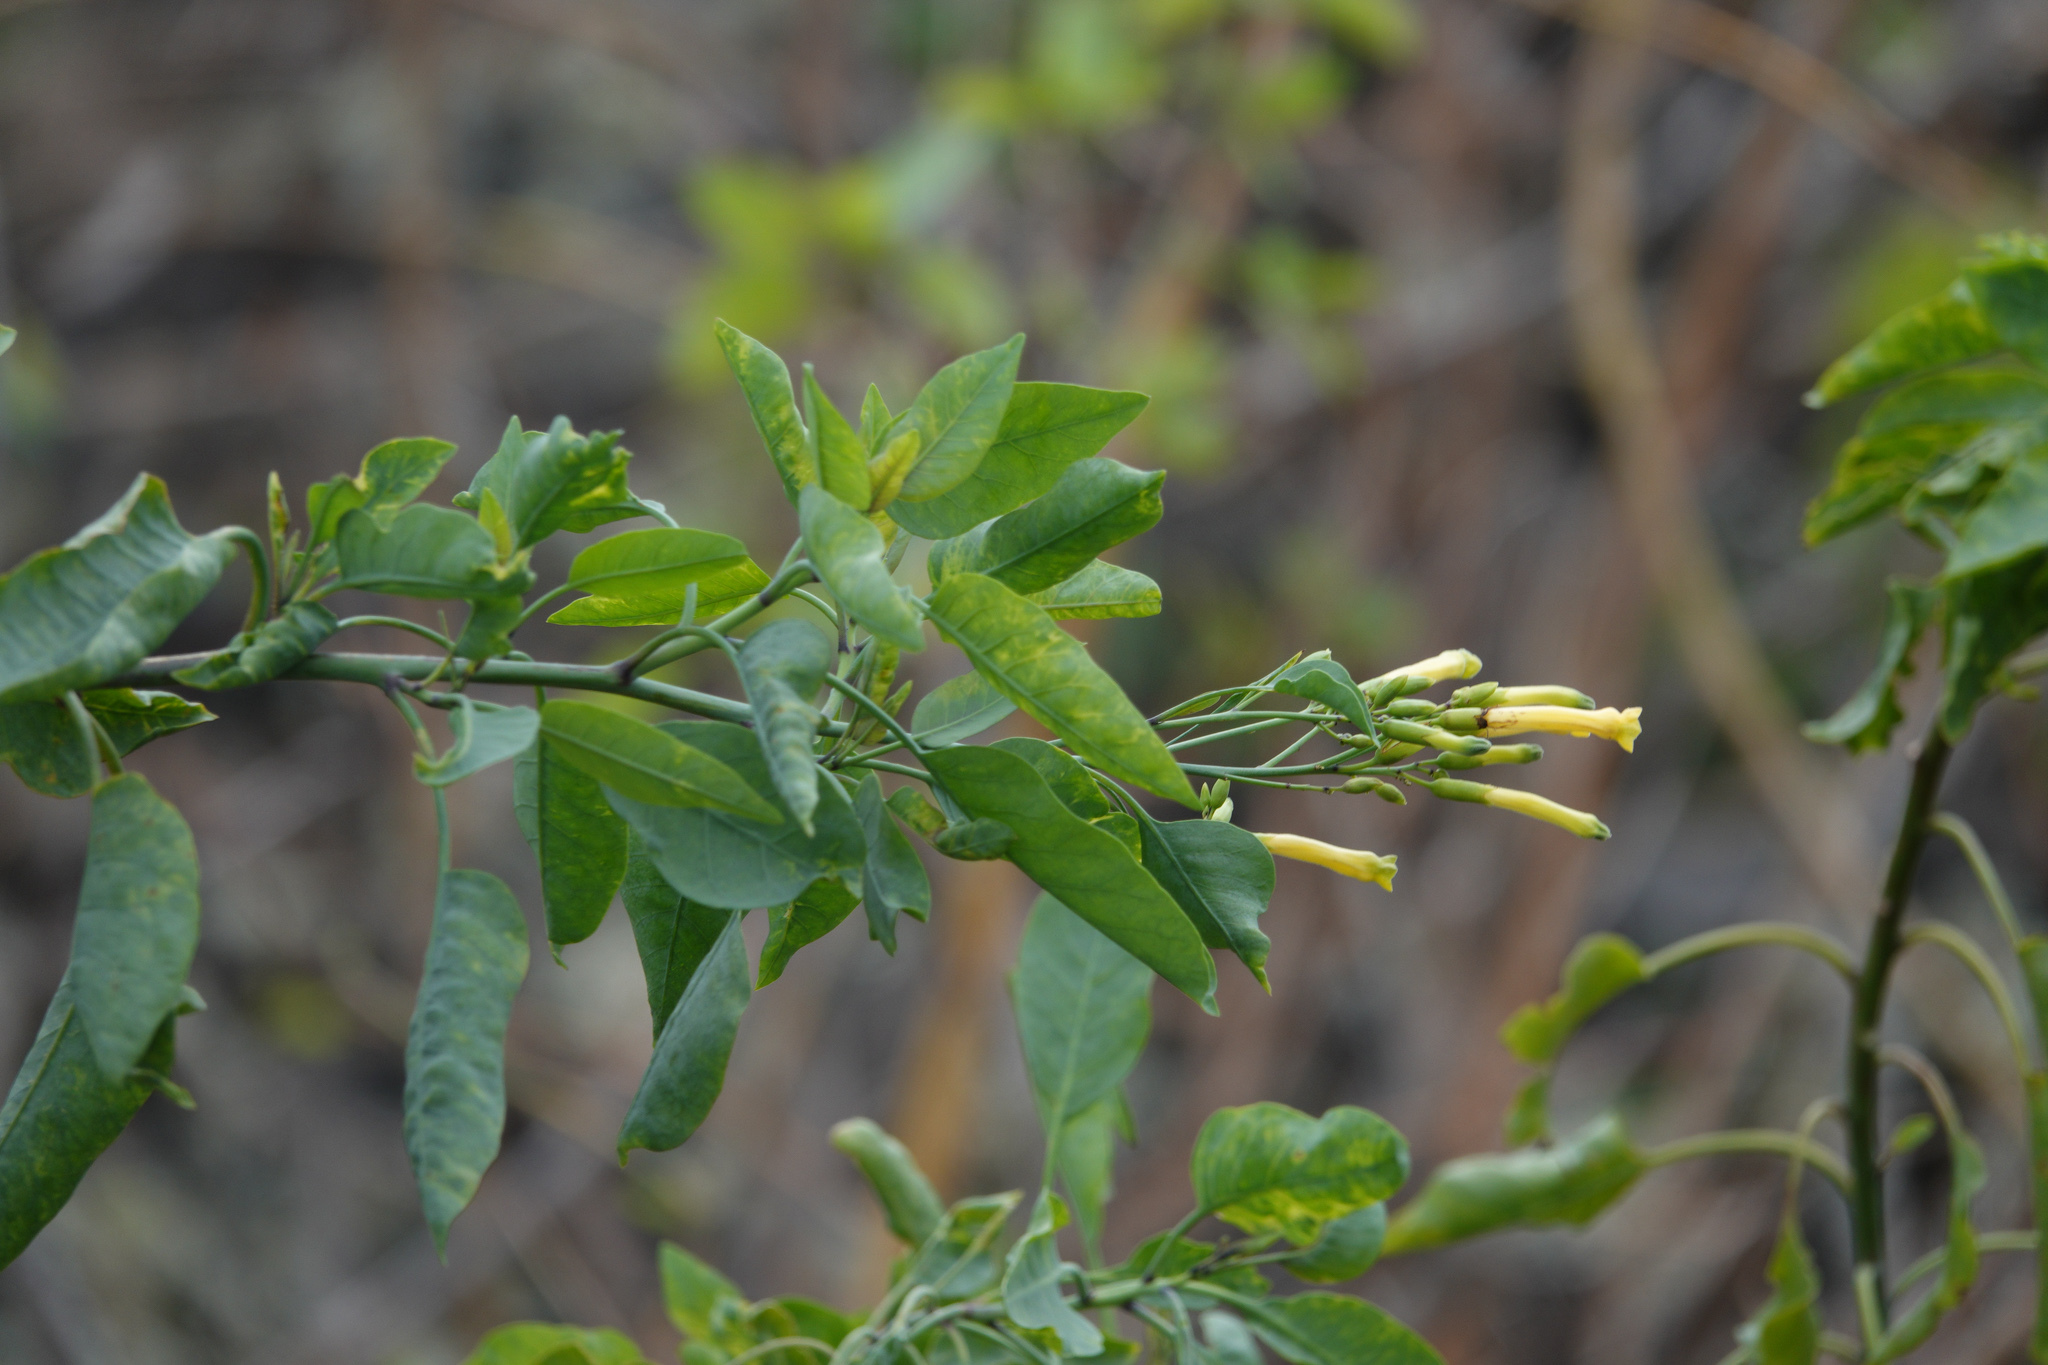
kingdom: Plantae
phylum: Tracheophyta
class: Magnoliopsida
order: Solanales
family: Solanaceae
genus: Nicotiana
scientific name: Nicotiana glauca
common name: Tree tobacco
